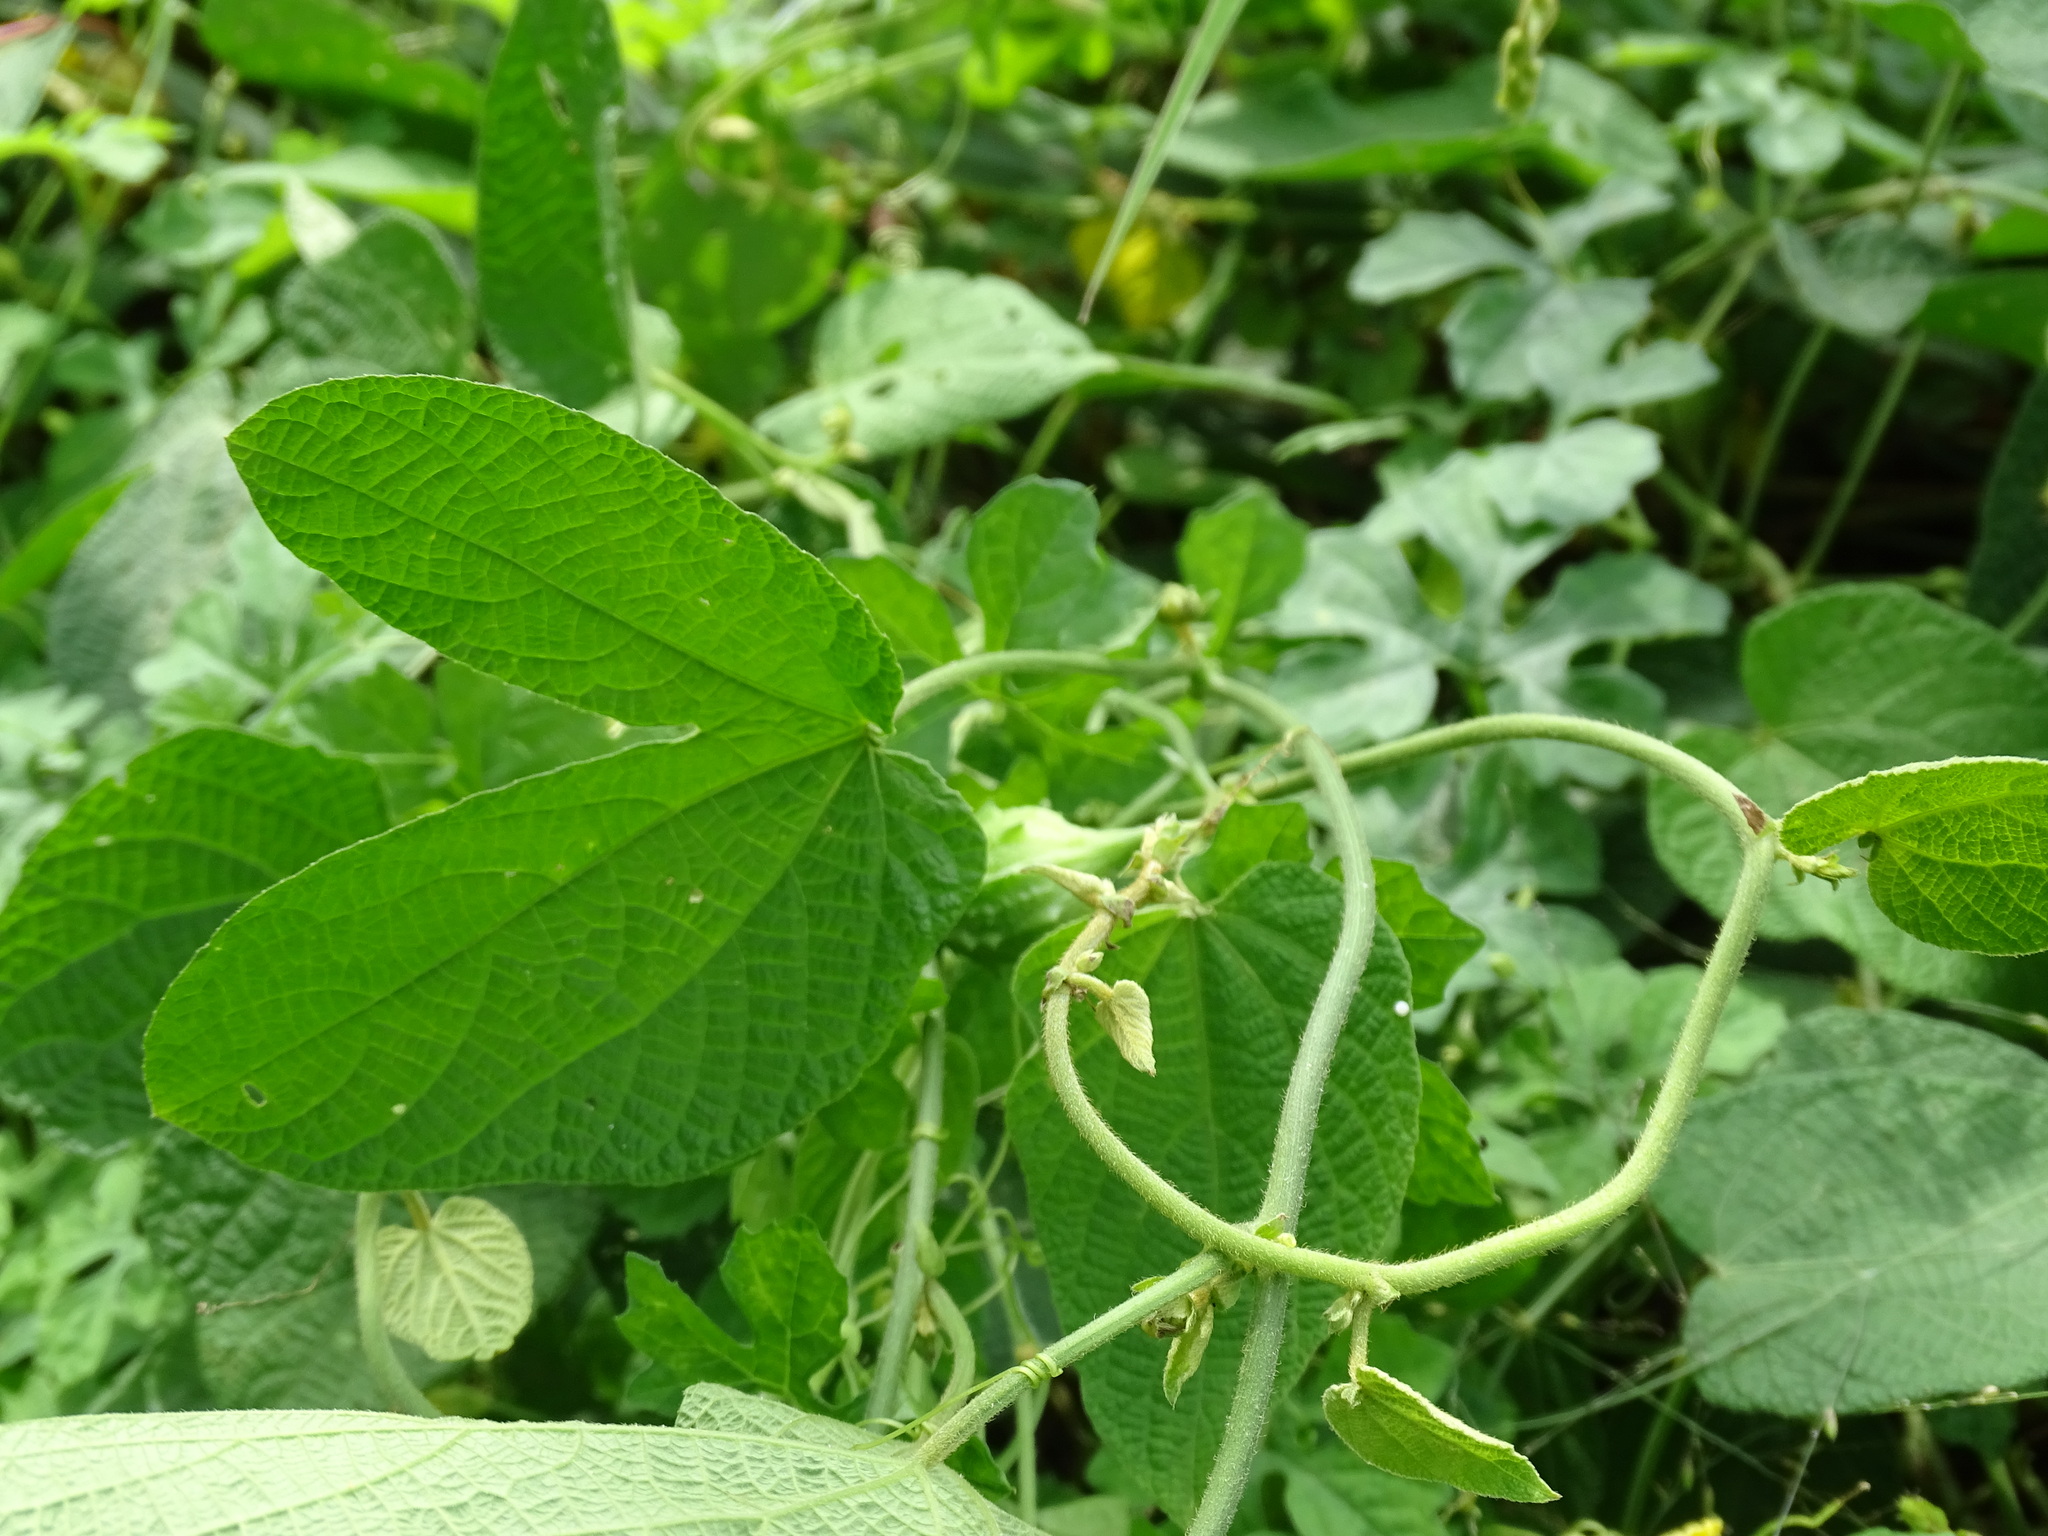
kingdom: Plantae
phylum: Tracheophyta
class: Magnoliopsida
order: Malpighiales
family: Euphorbiaceae
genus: Dalechampia
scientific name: Dalechampia scandens
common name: Spurgecreeper
